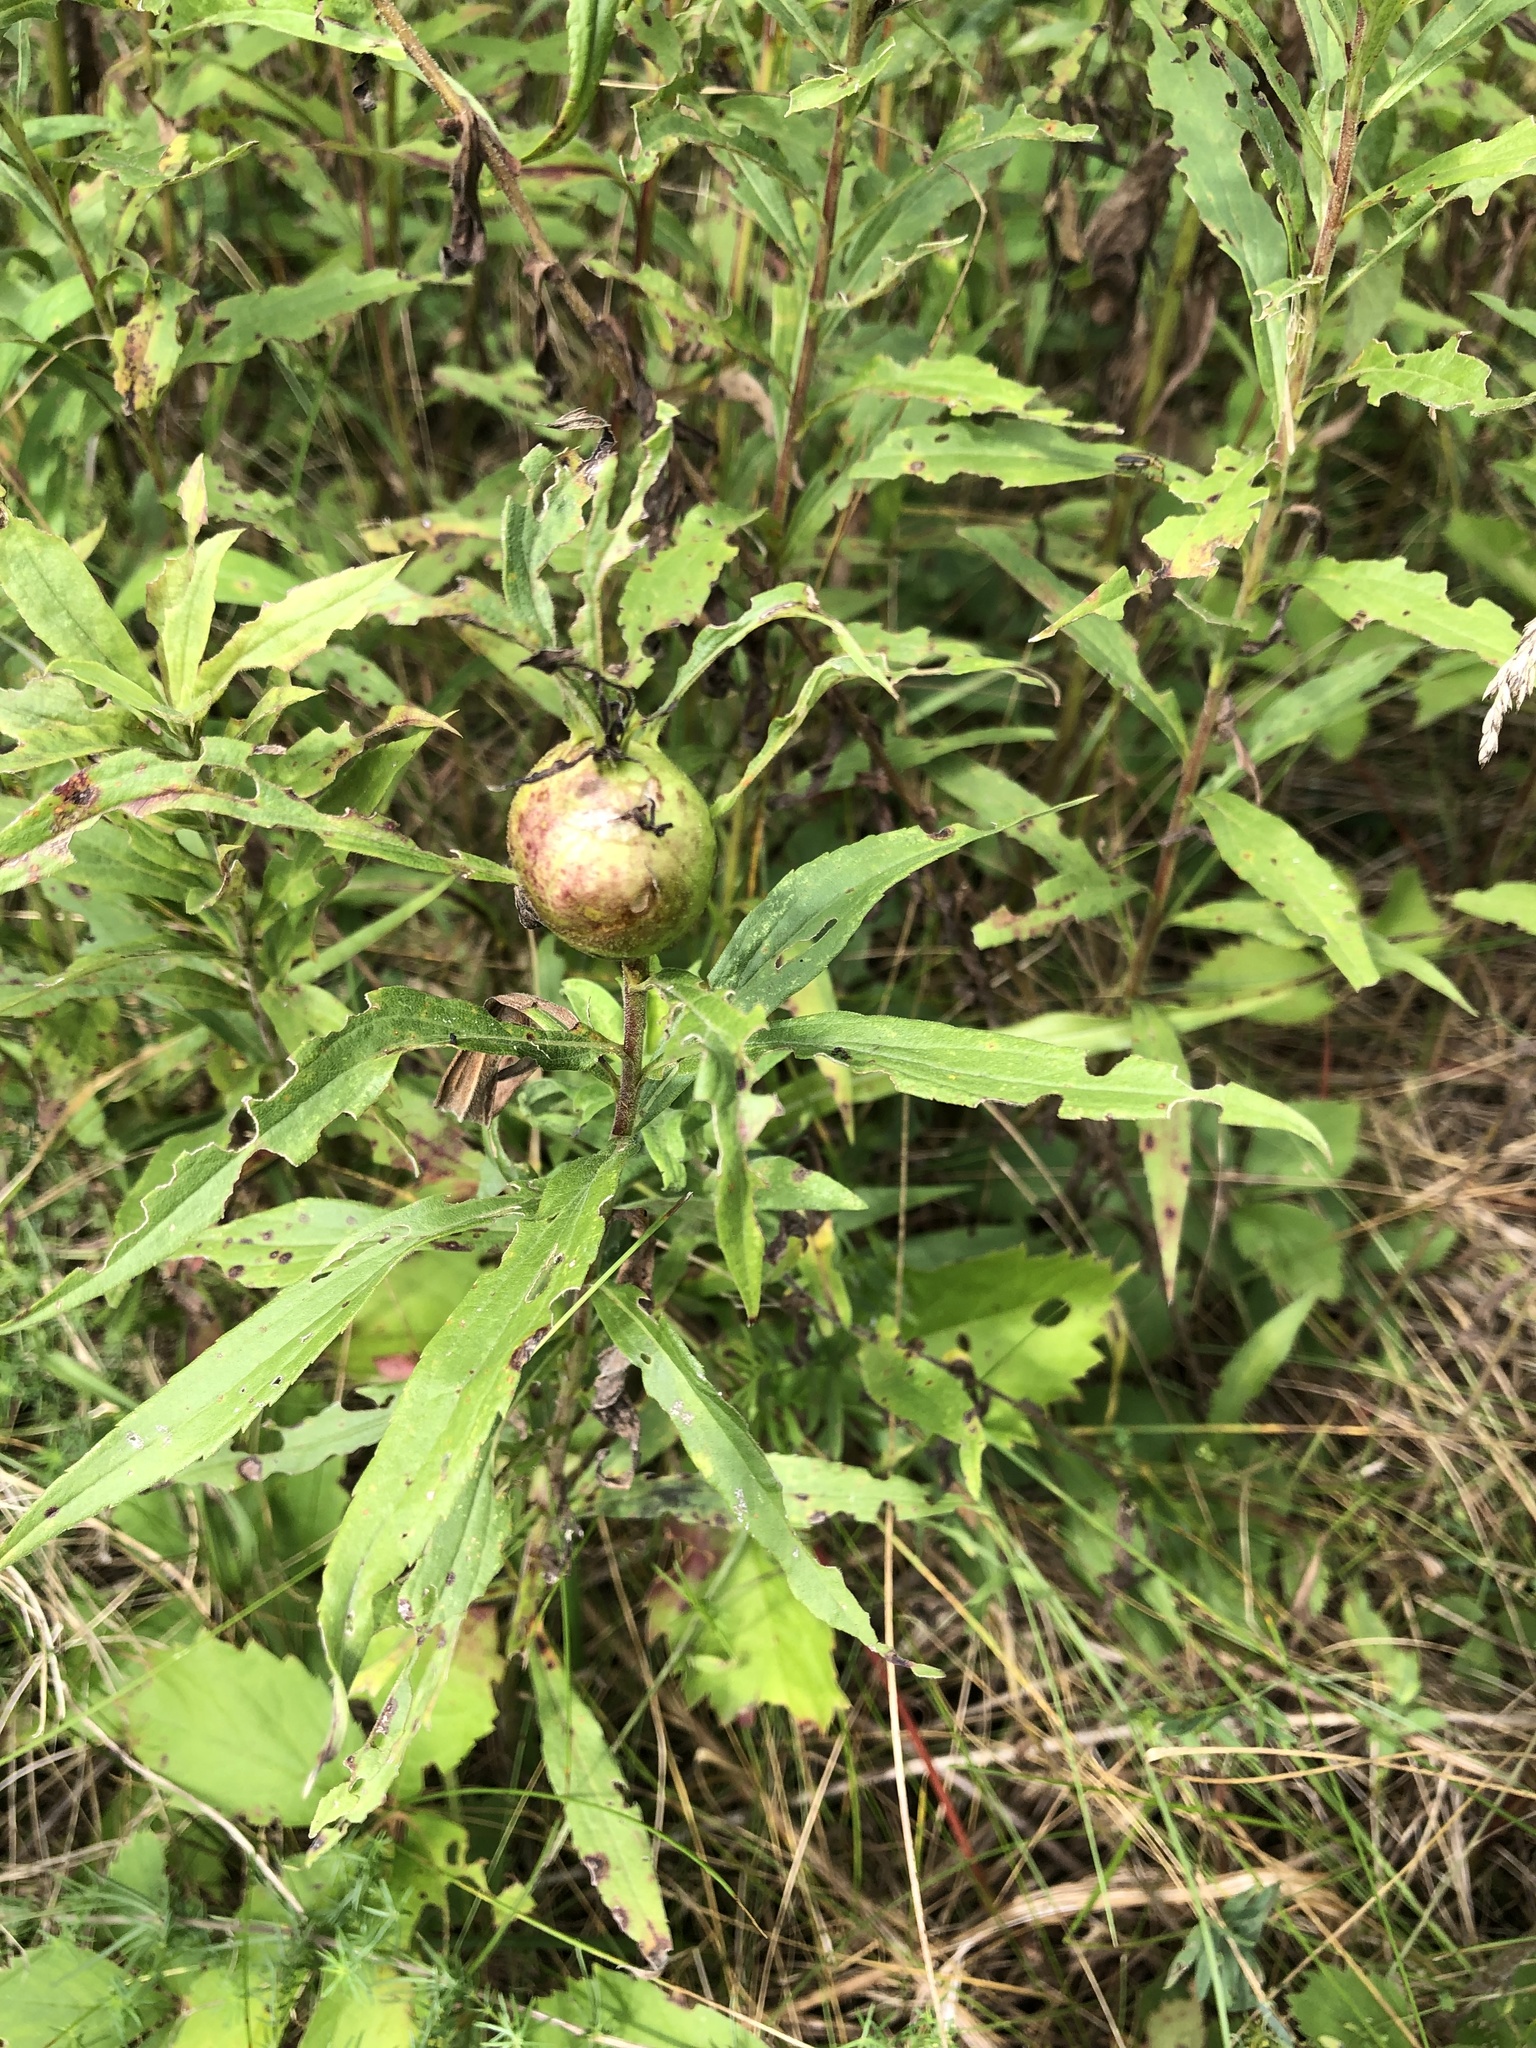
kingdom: Animalia
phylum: Arthropoda
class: Insecta
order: Diptera
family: Tephritidae
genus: Eurosta
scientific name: Eurosta solidaginis
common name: Goldenrod gall fly
